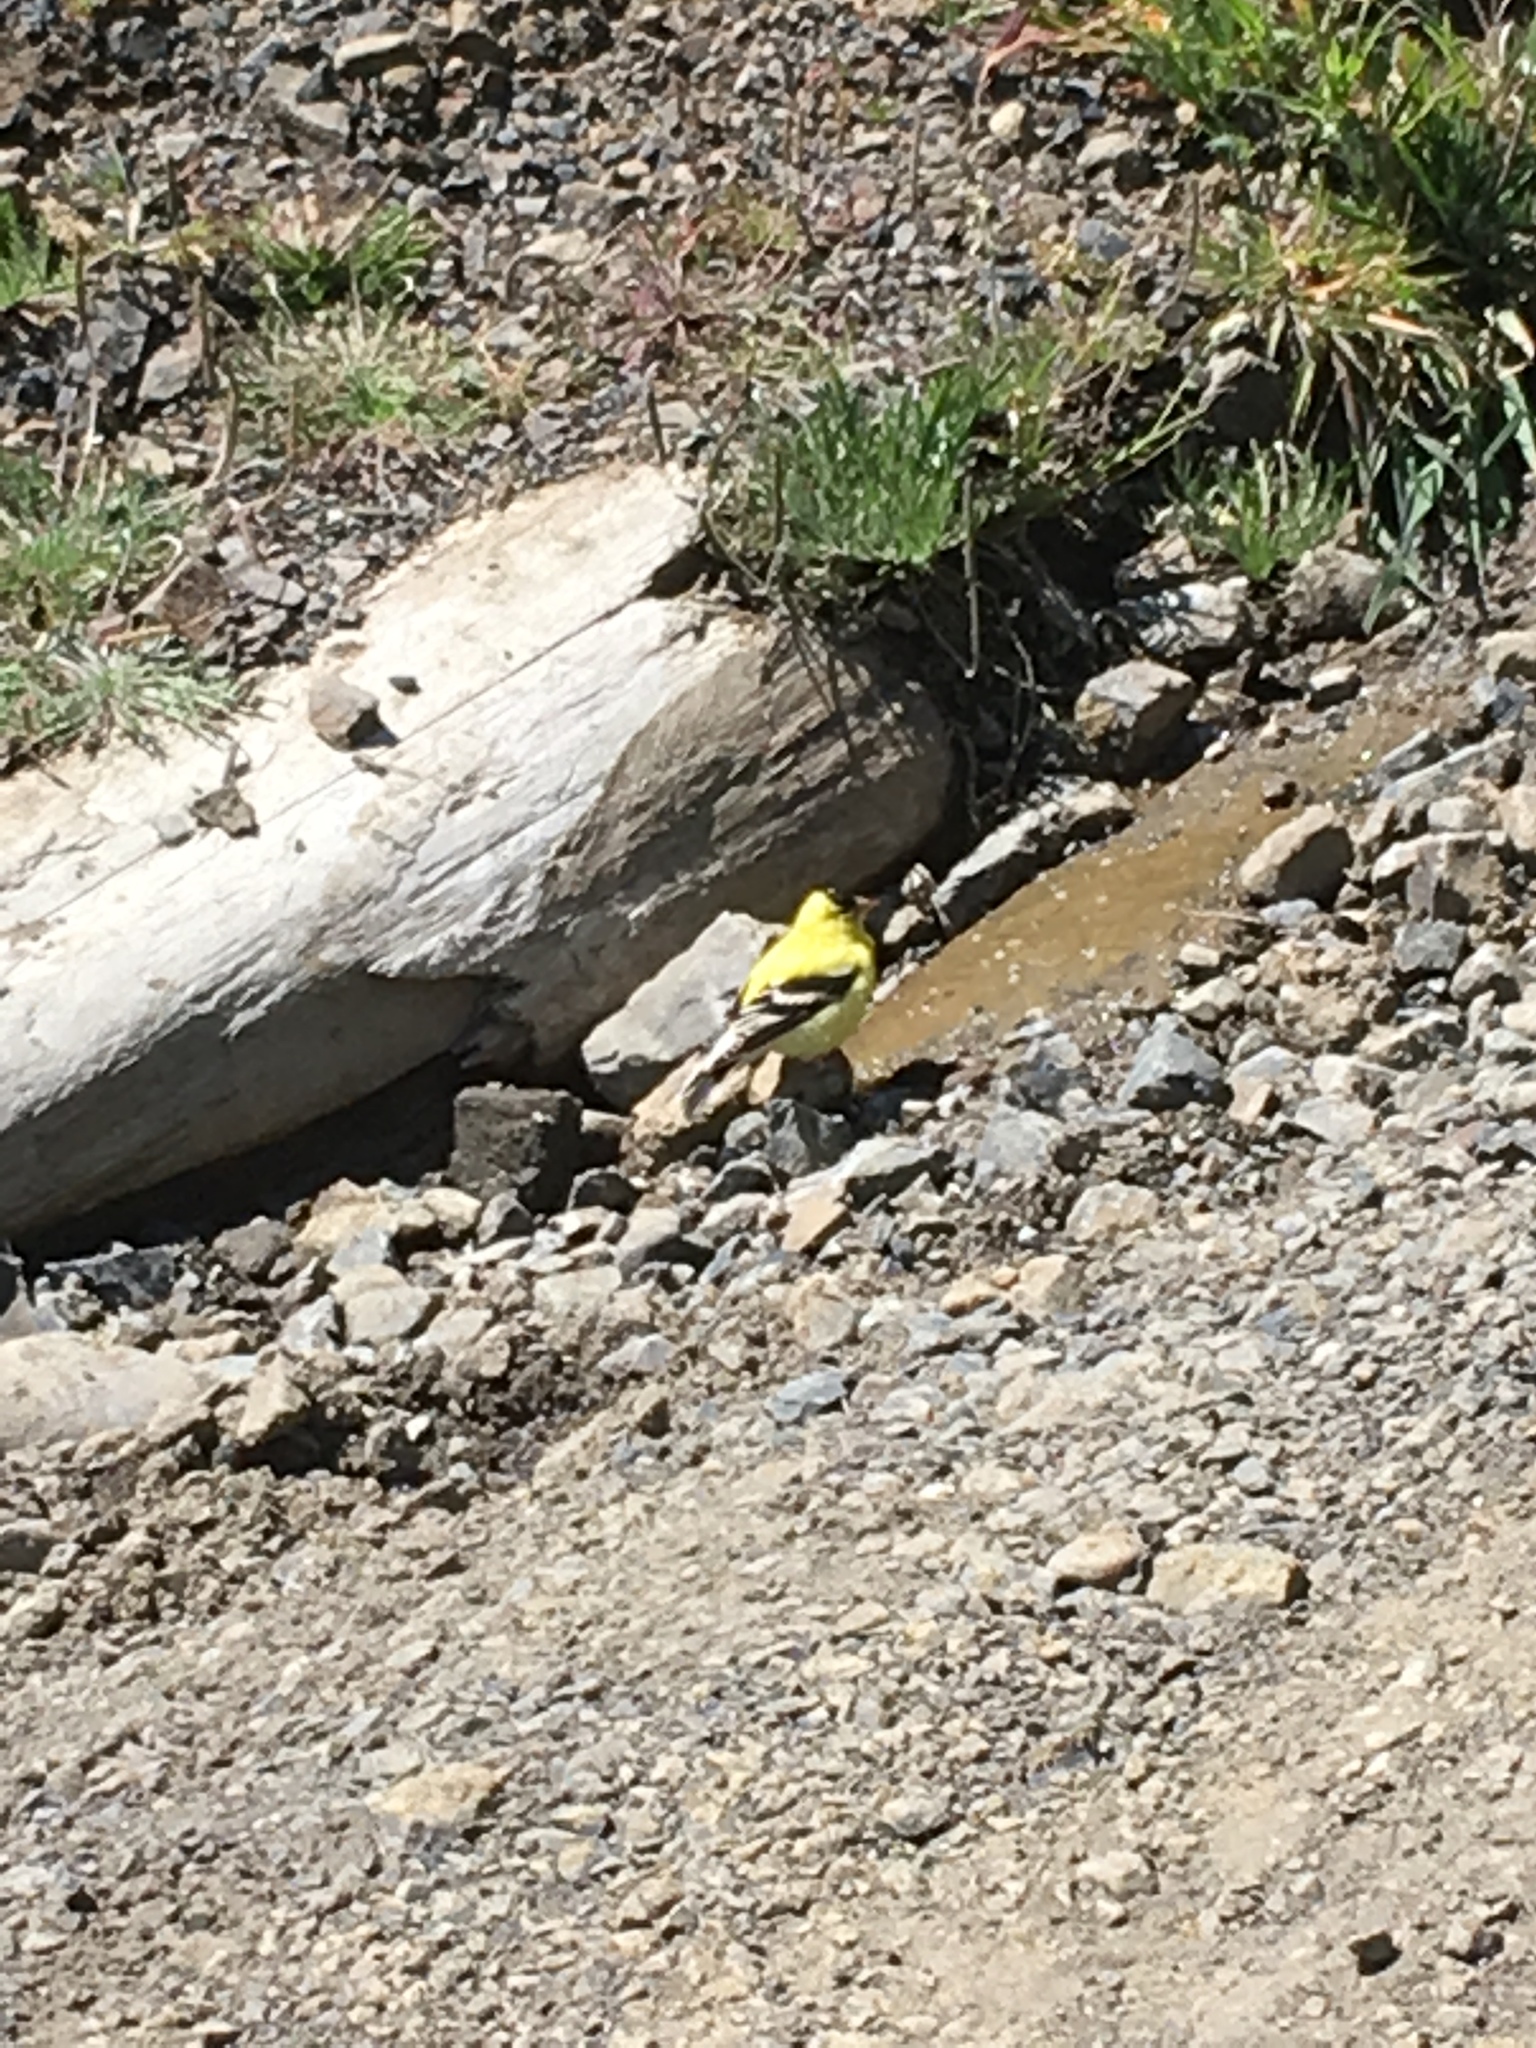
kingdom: Animalia
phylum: Chordata
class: Aves
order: Passeriformes
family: Fringillidae
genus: Spinus
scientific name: Spinus tristis
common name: American goldfinch
